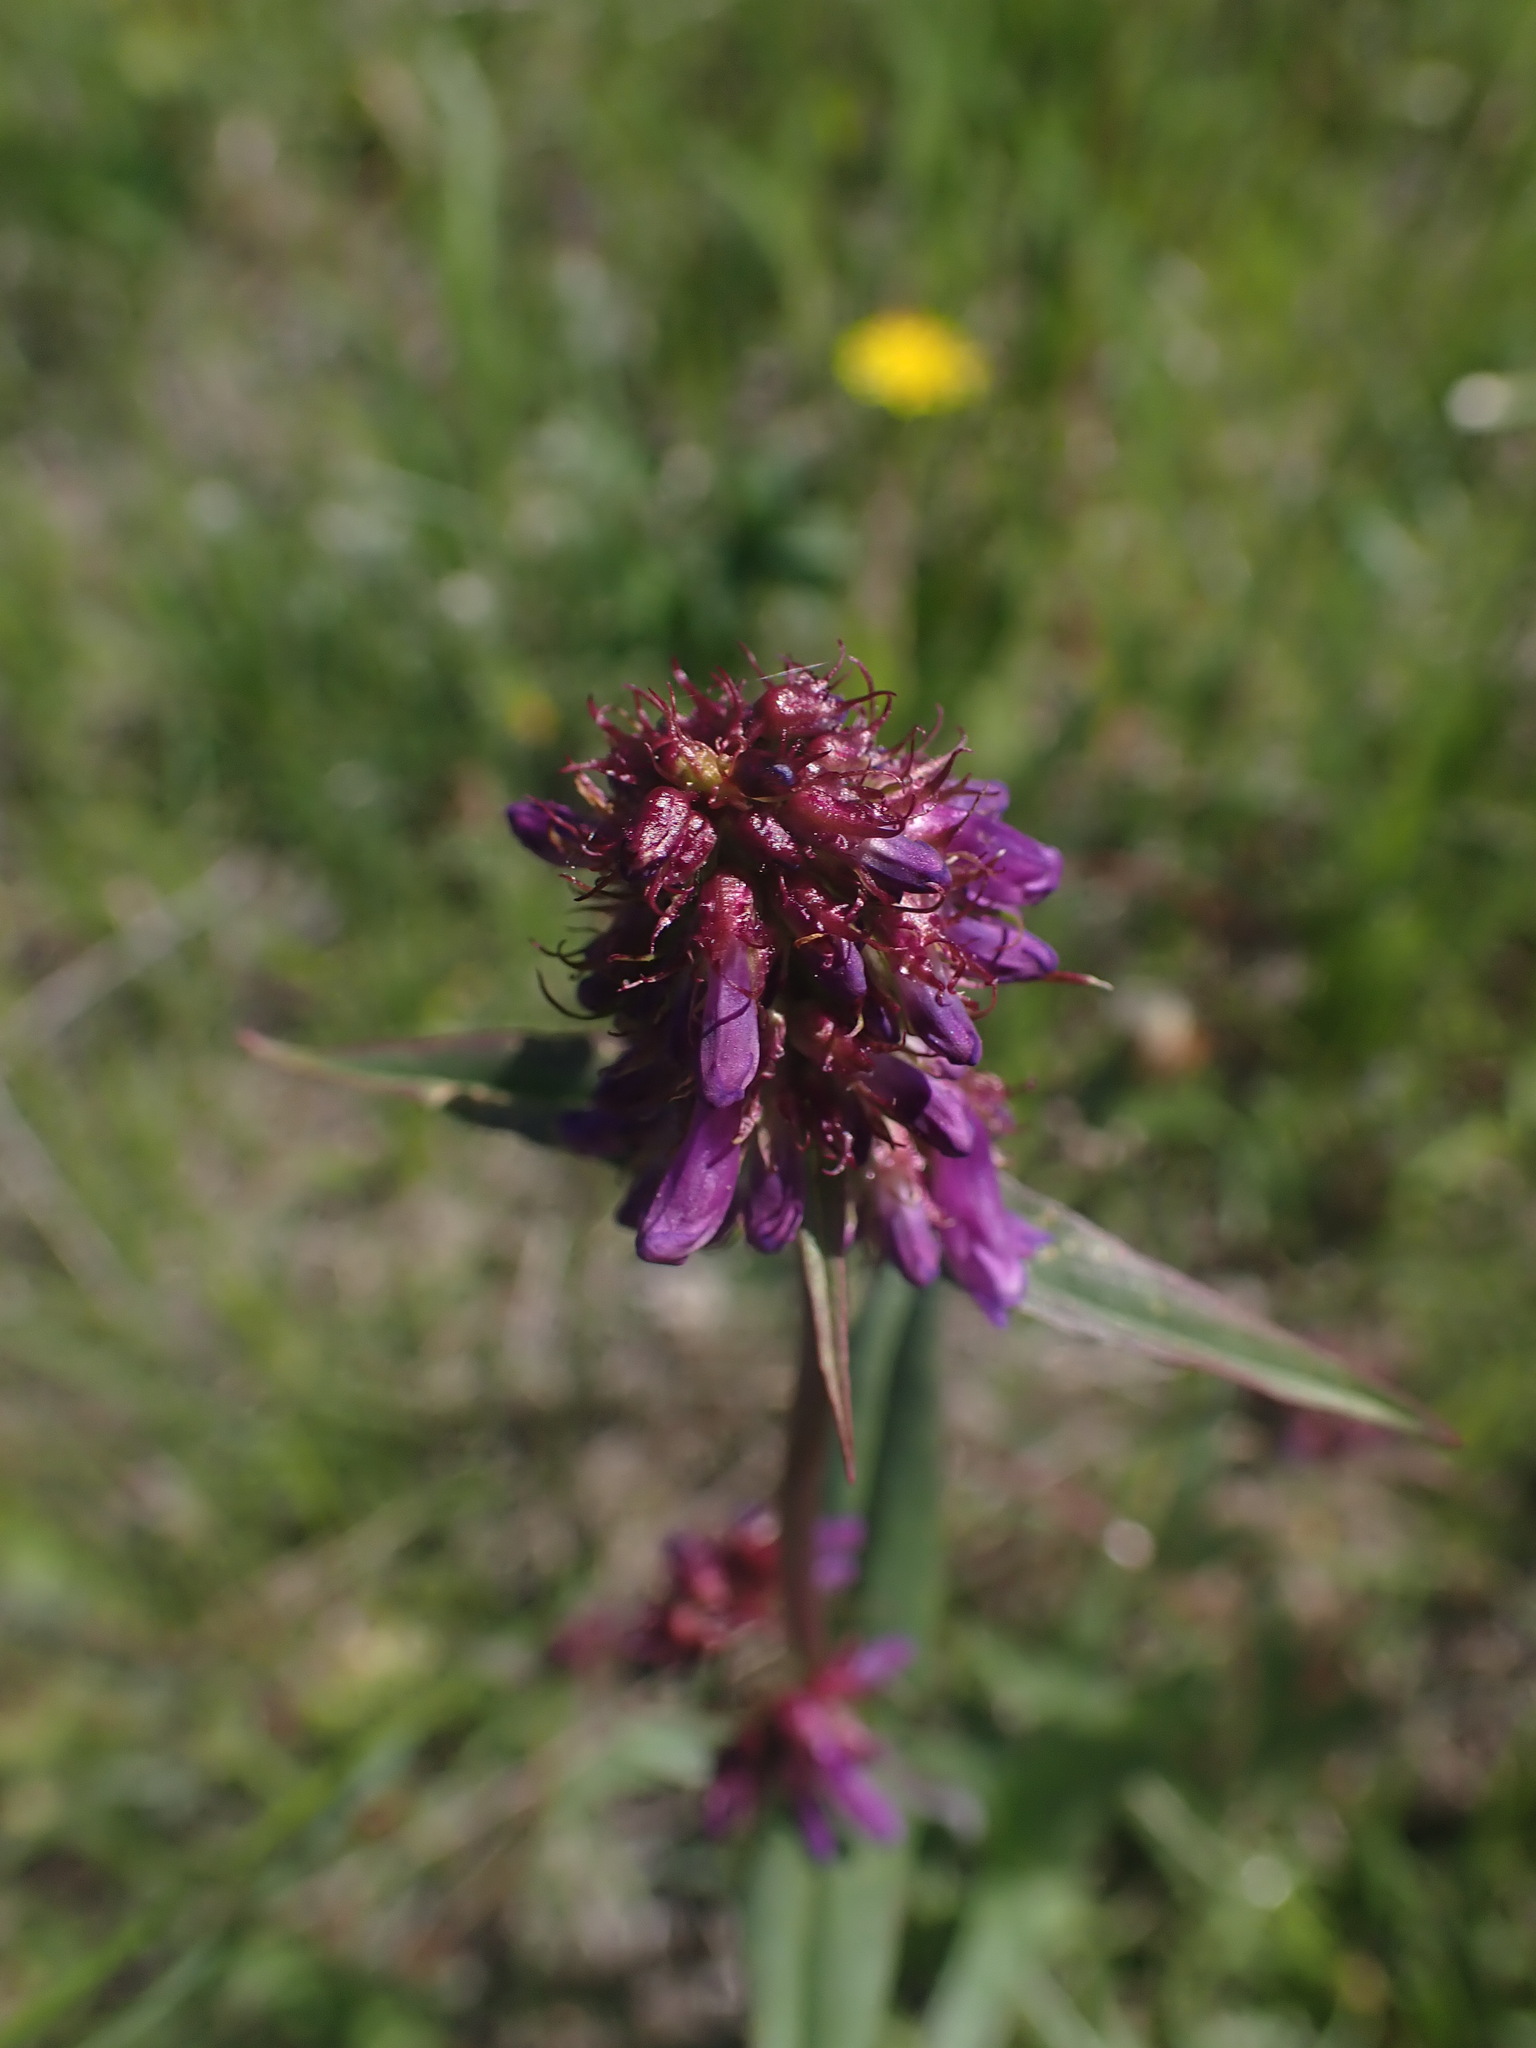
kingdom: Plantae
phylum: Tracheophyta
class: Magnoliopsida
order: Lamiales
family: Plantaginaceae
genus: Penstemon
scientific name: Penstemon procerus
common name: Small-flower penstemon
